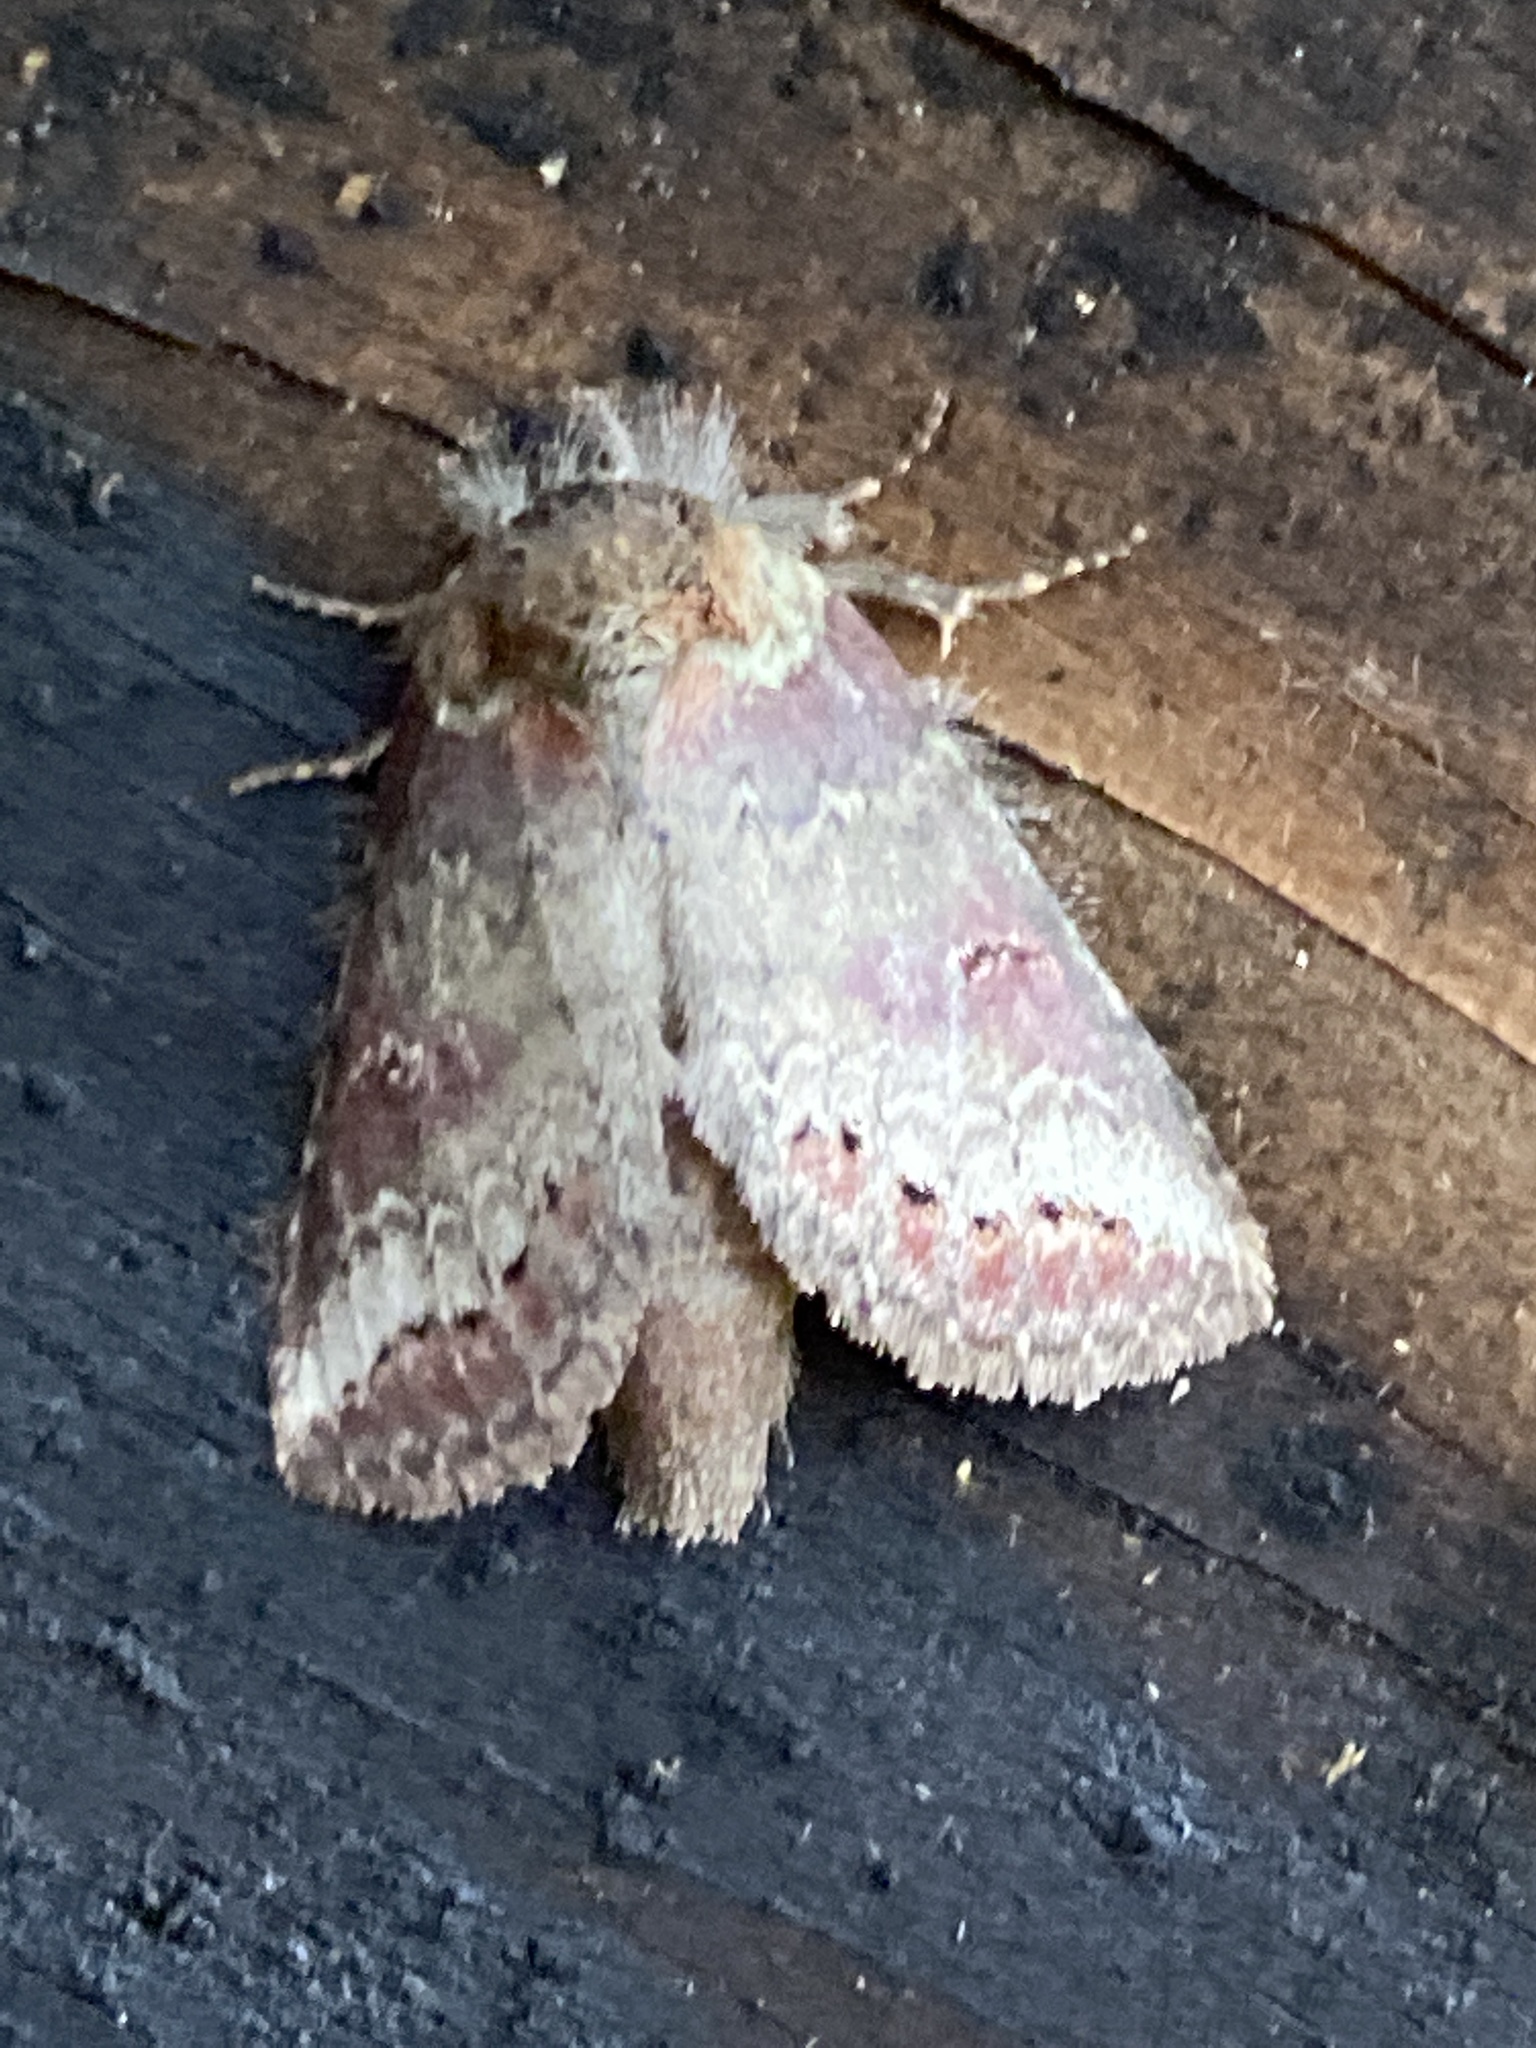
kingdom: Animalia
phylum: Arthropoda
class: Insecta
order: Lepidoptera
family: Notodontidae
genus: Baltodonta
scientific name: Baltodonta broui
